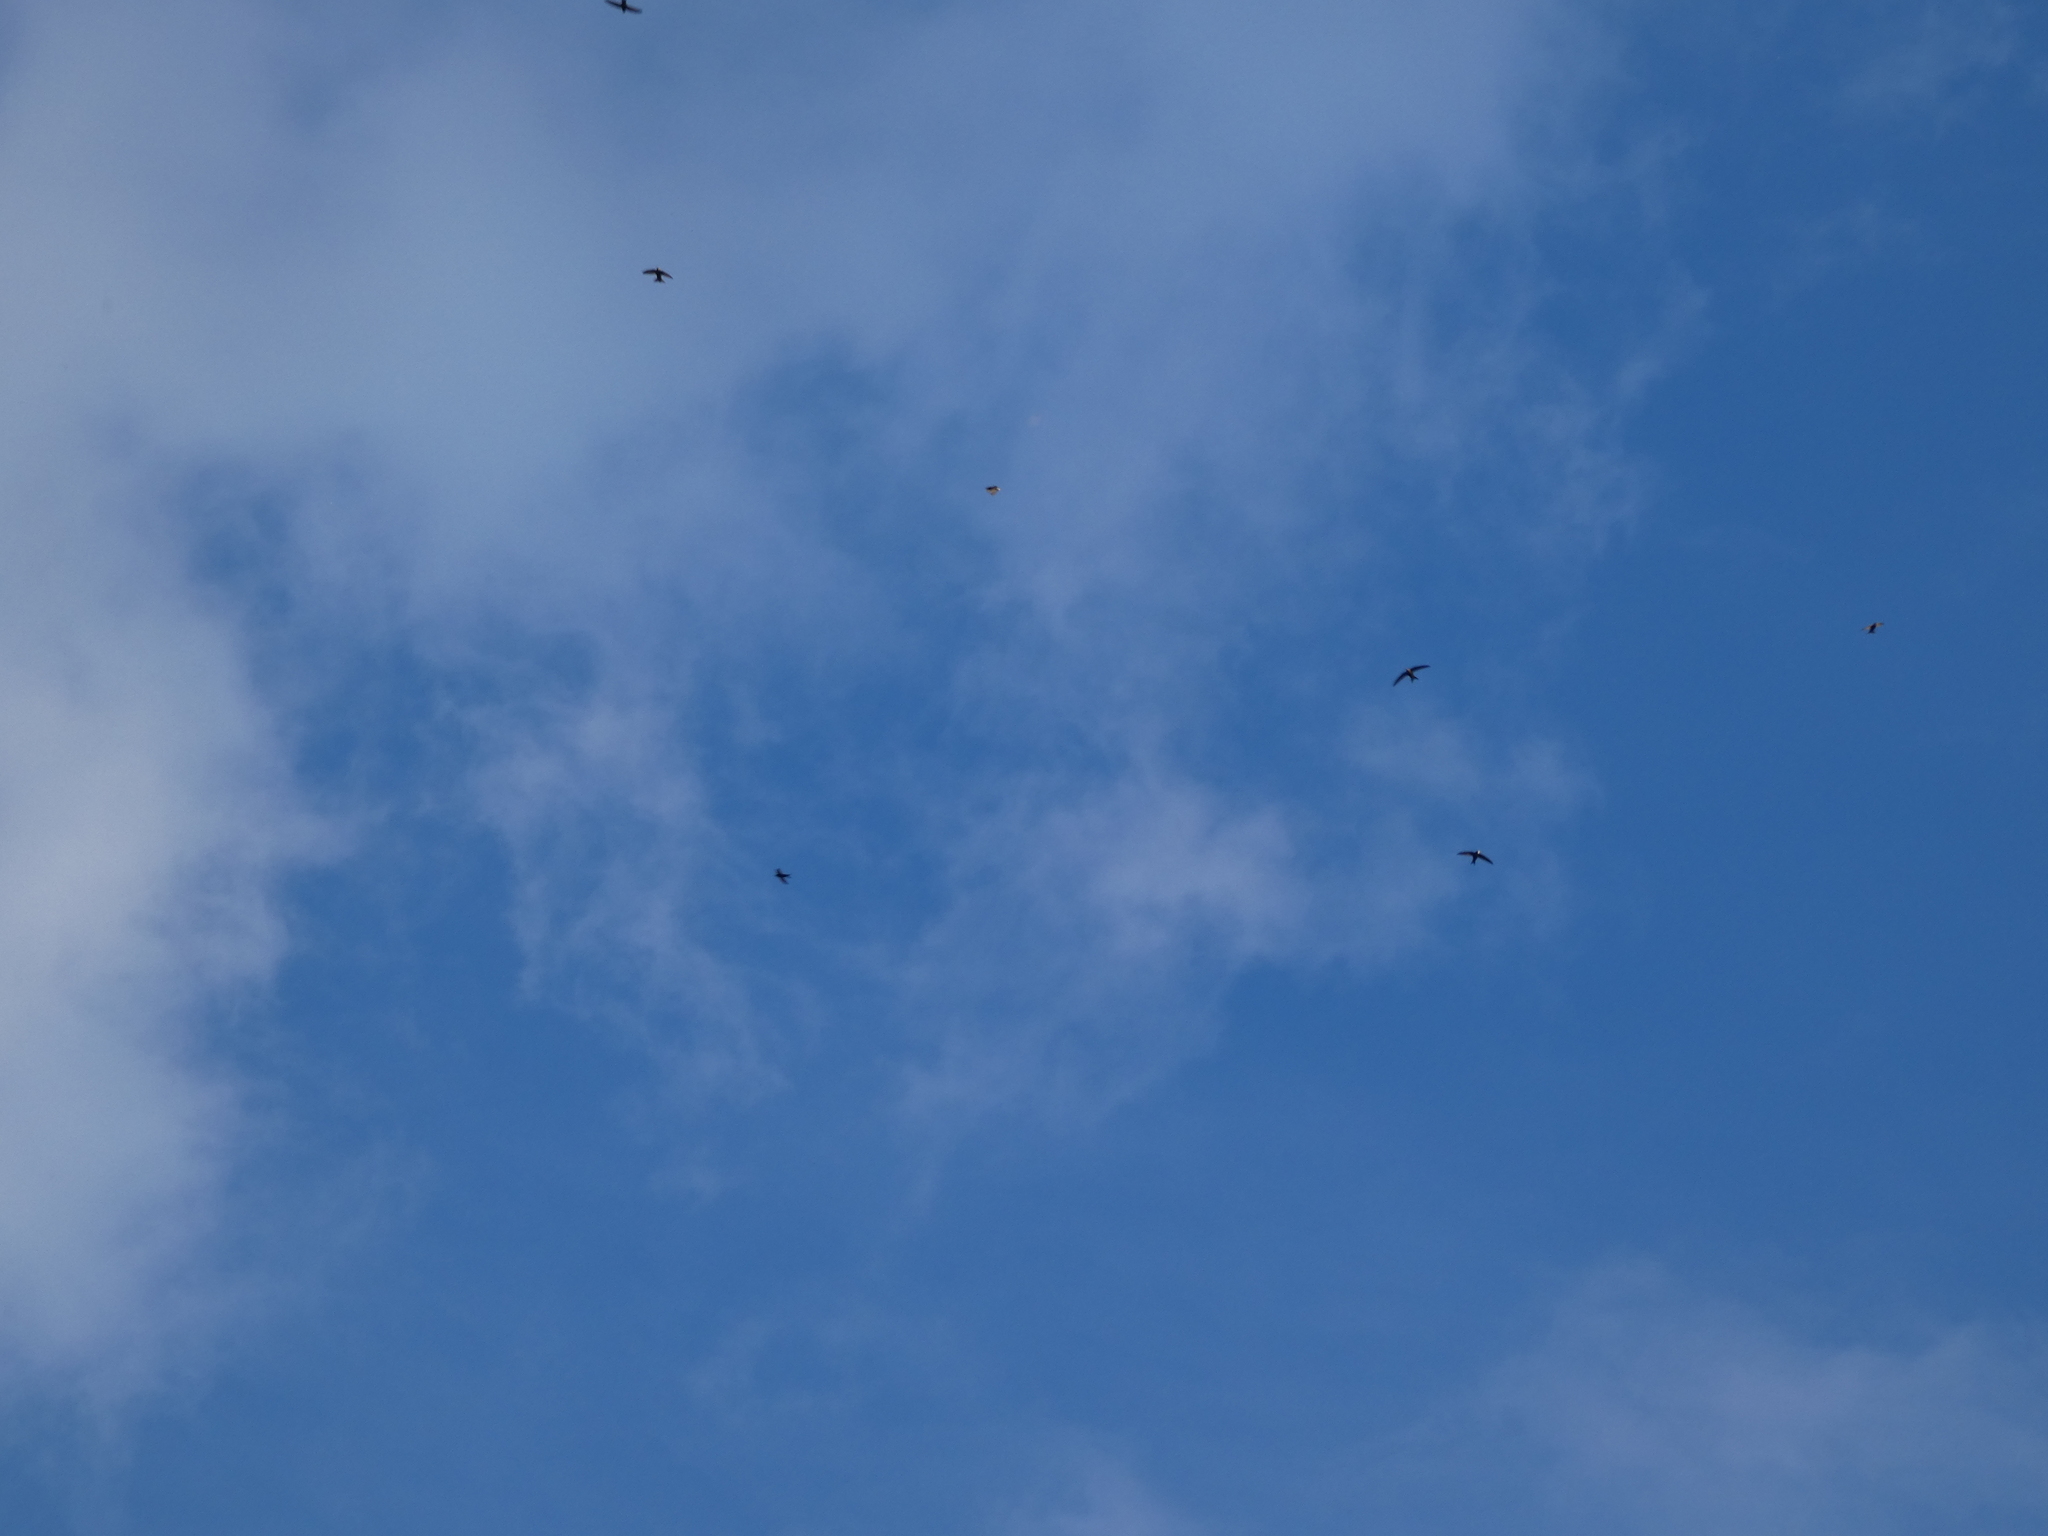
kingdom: Animalia
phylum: Chordata
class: Aves
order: Apodiformes
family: Apodidae
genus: Apus
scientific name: Apus apus
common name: Common swift
